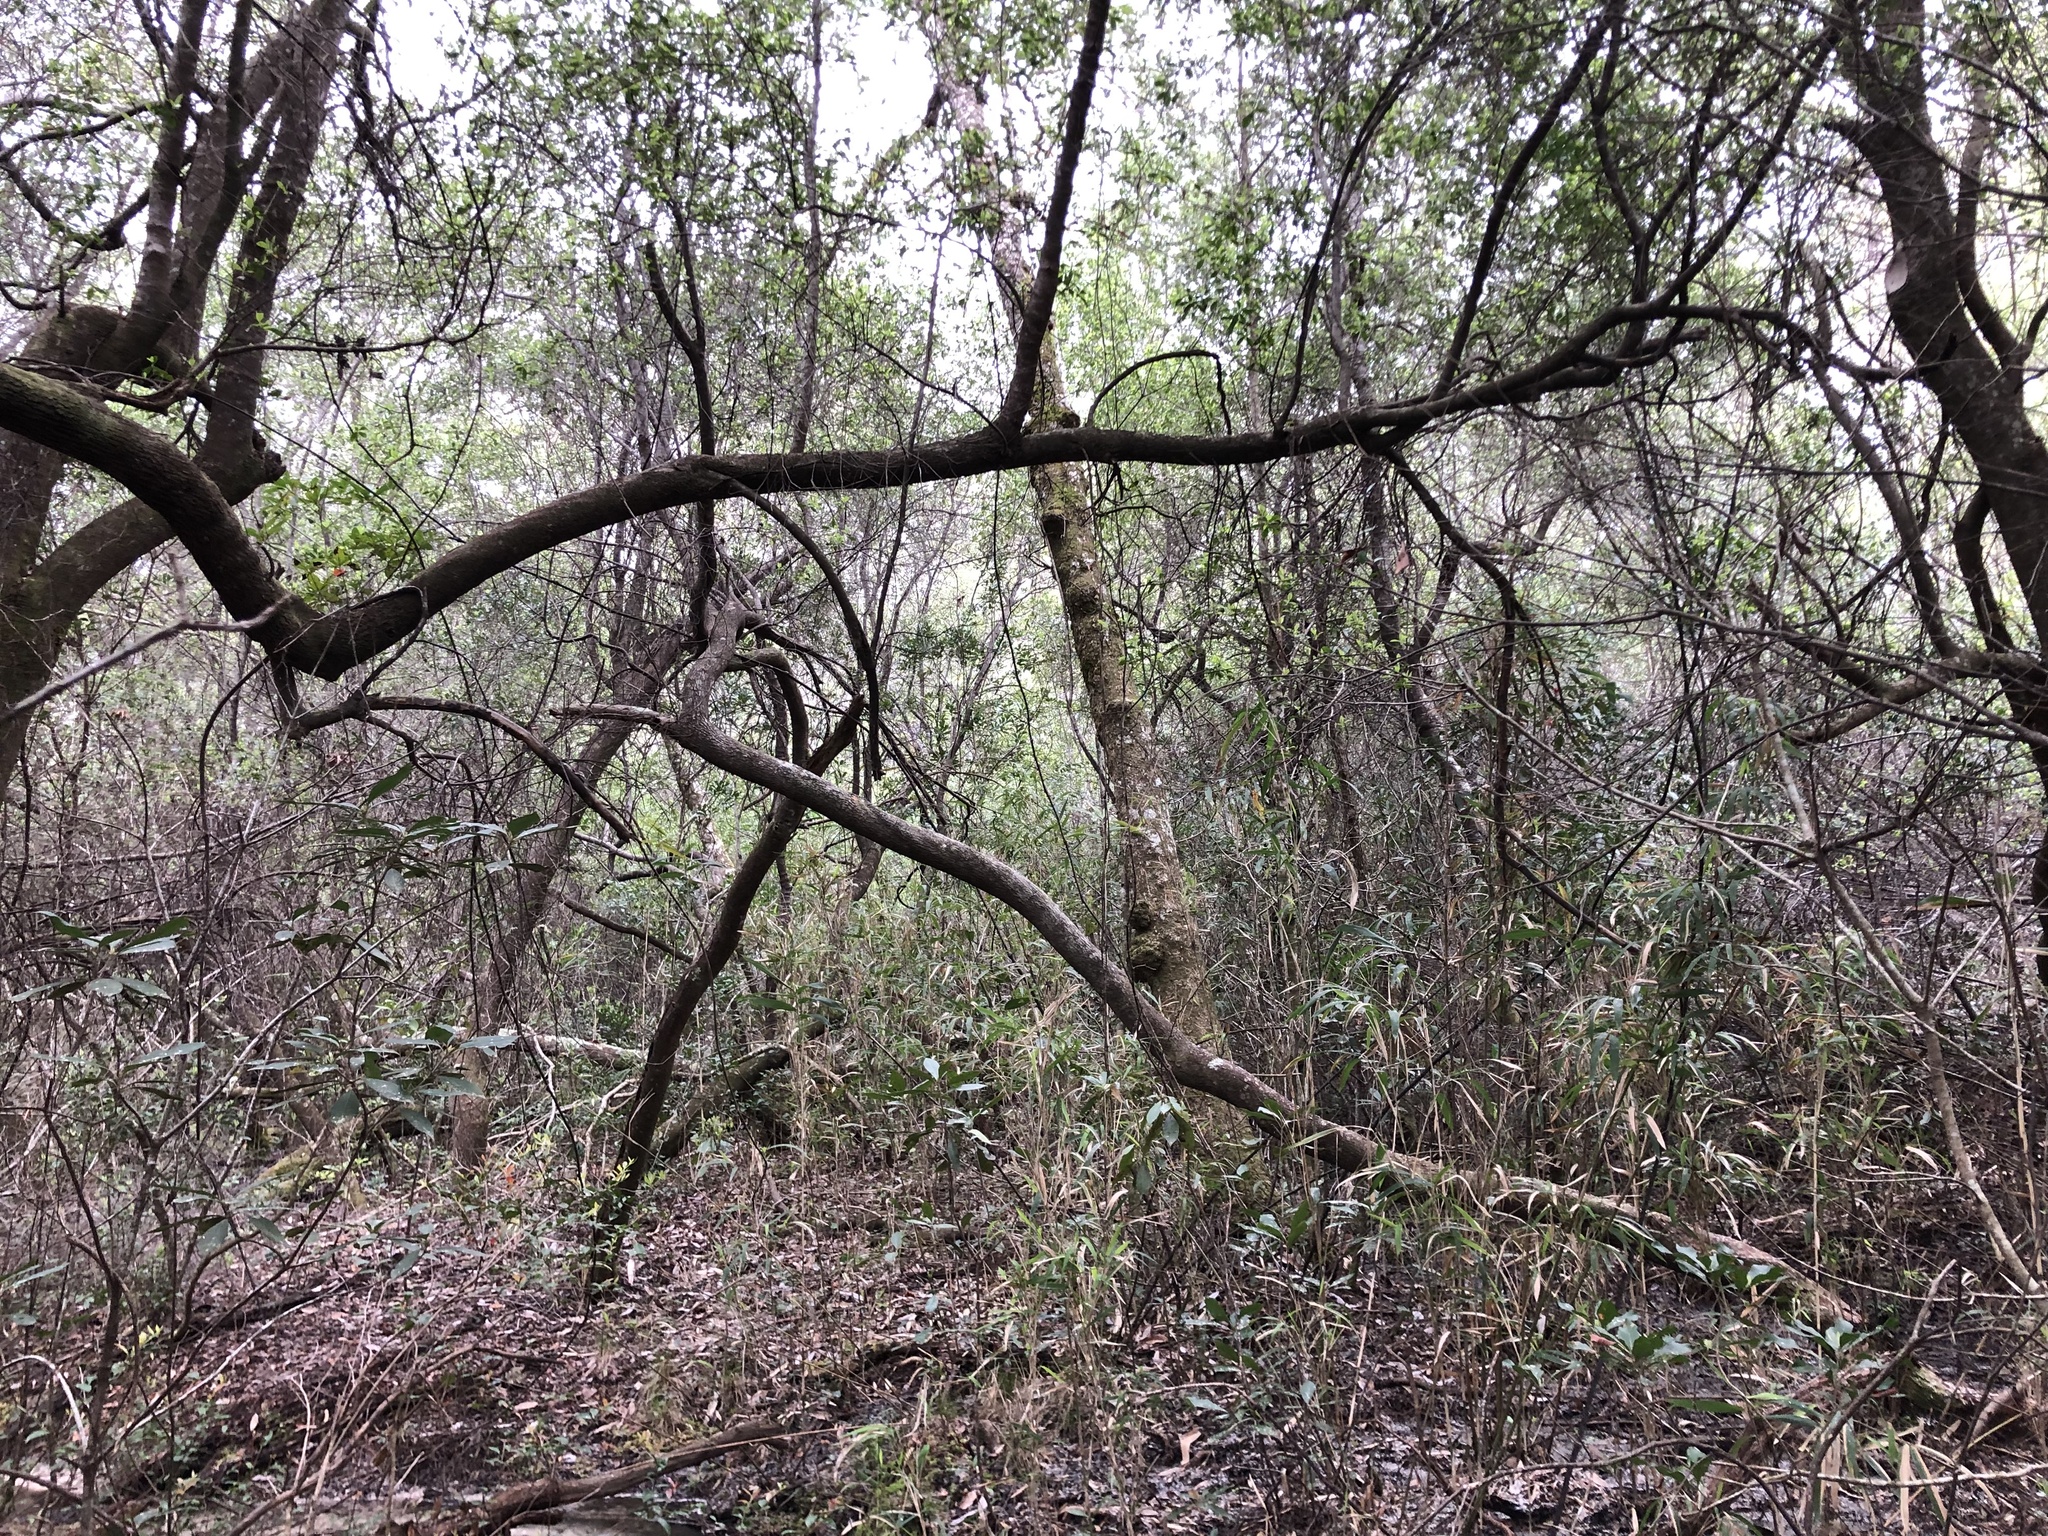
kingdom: Plantae
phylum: Tracheophyta
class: Magnoliopsida
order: Lamiales
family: Lentibulariaceae
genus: Utricularia
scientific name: Utricularia cornuta
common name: Horned bladderwort
